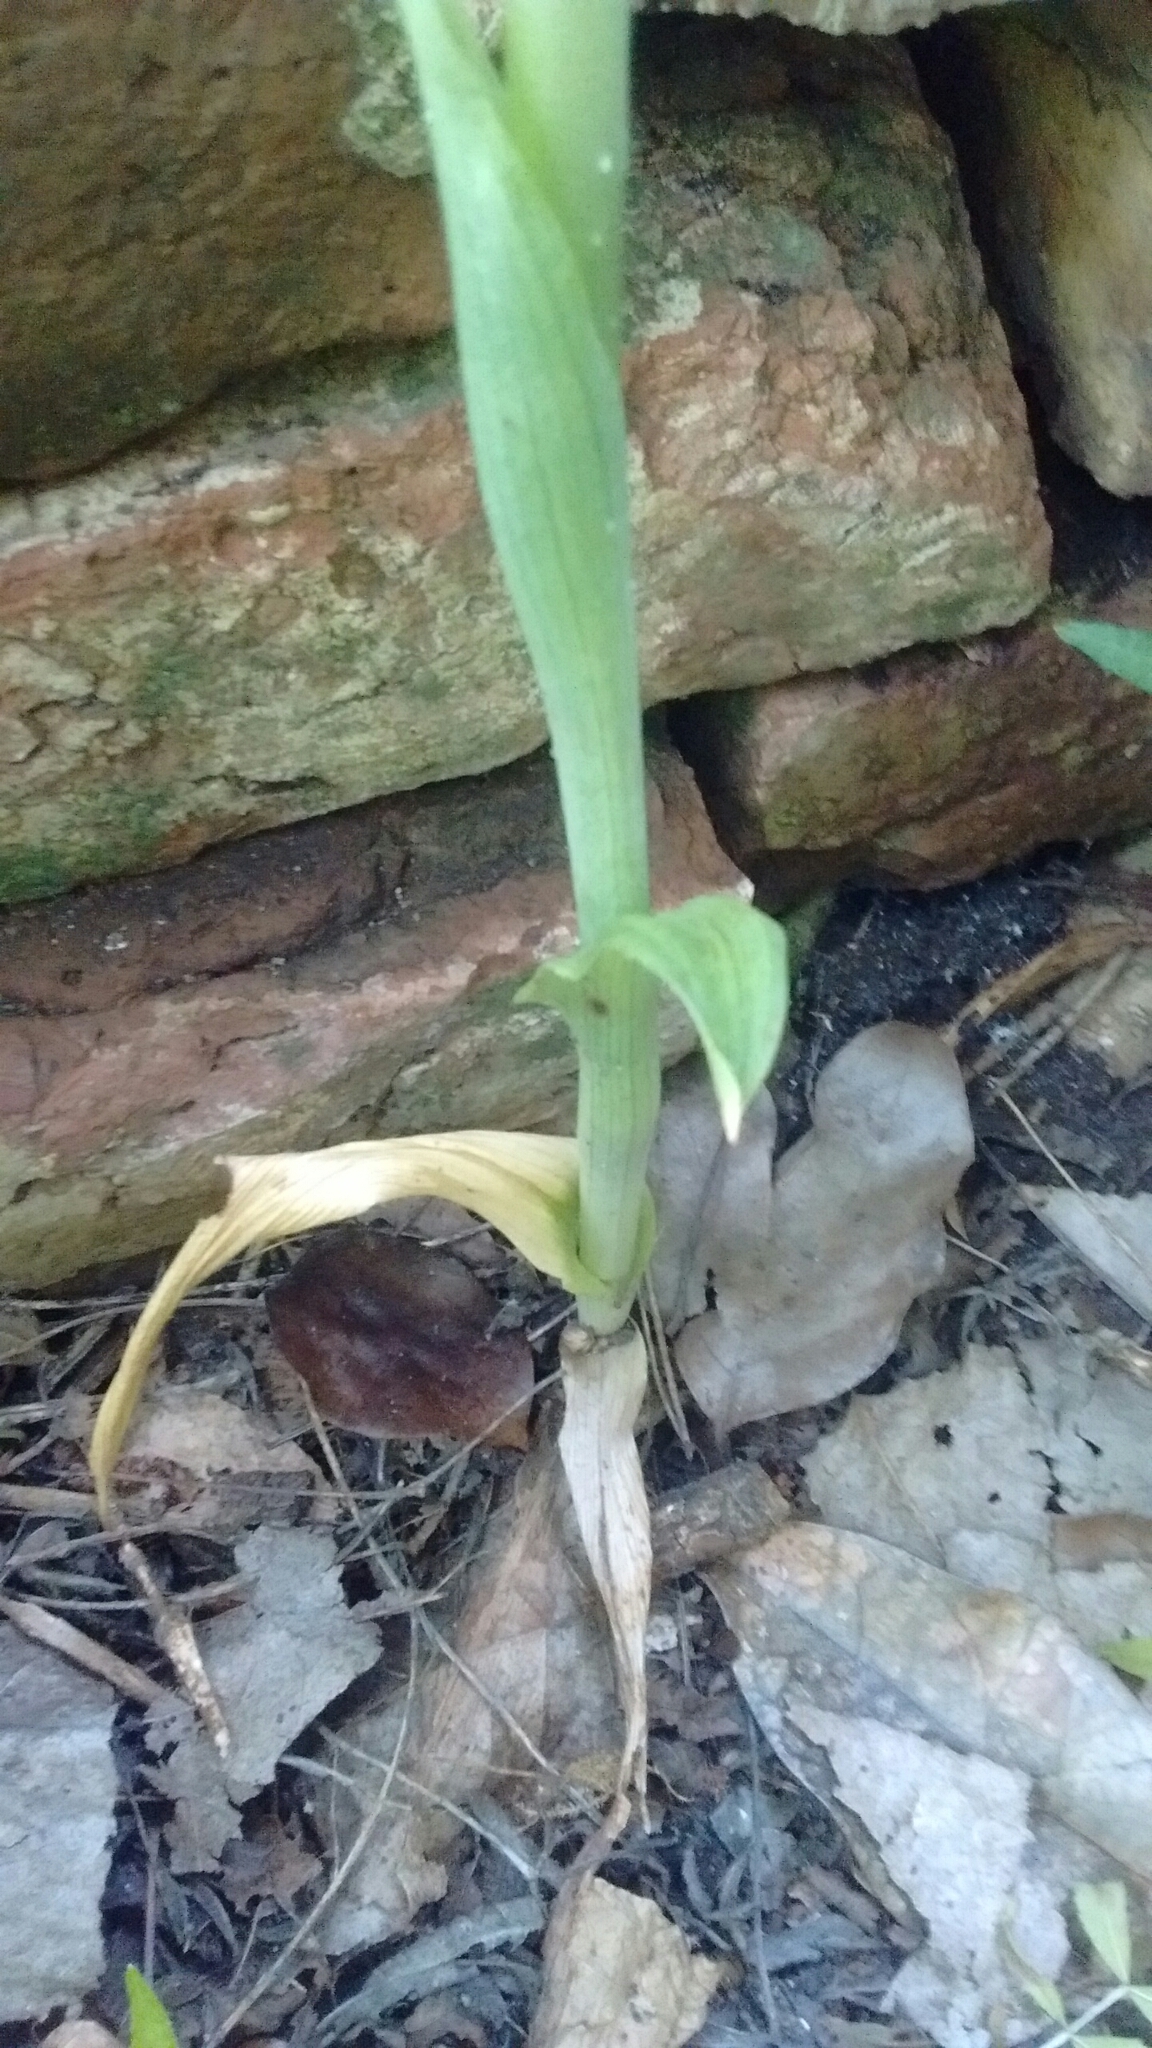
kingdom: Plantae
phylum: Tracheophyta
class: Liliopsida
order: Asparagales
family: Orchidaceae
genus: Chloraea
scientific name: Chloraea membranacea
